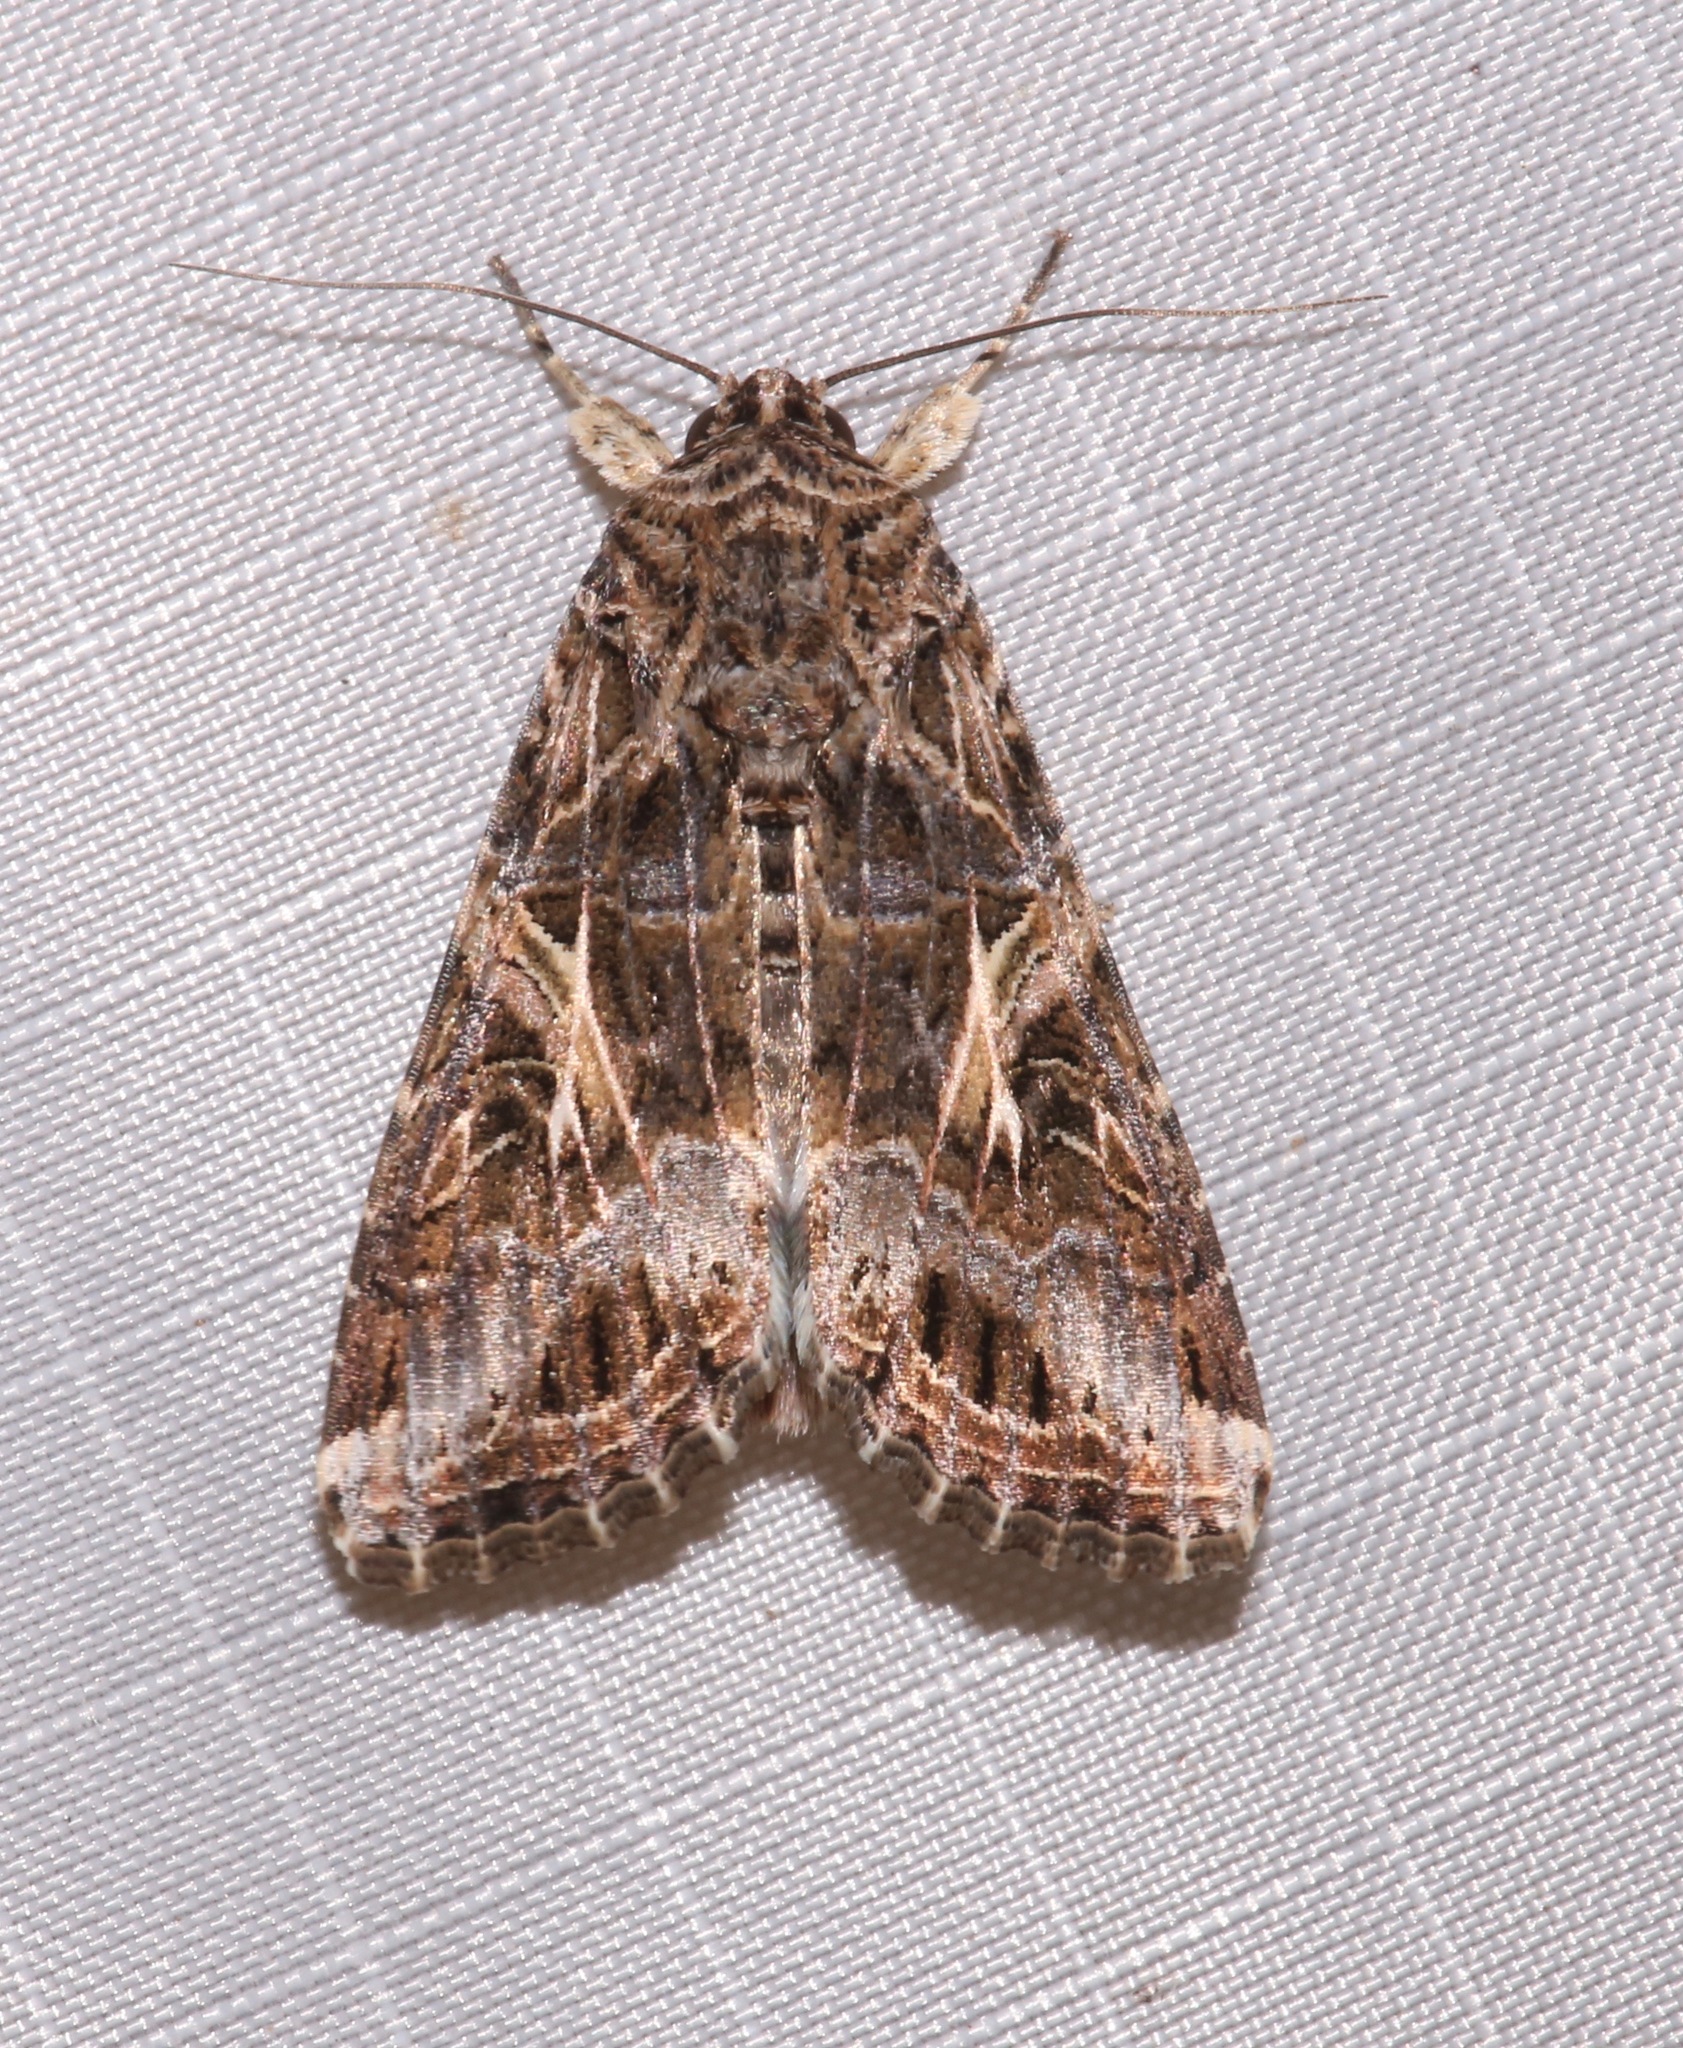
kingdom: Animalia
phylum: Arthropoda
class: Insecta
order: Lepidoptera
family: Noctuidae
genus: Spodoptera
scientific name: Spodoptera ornithogalli
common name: Yellow-striped armyworm
